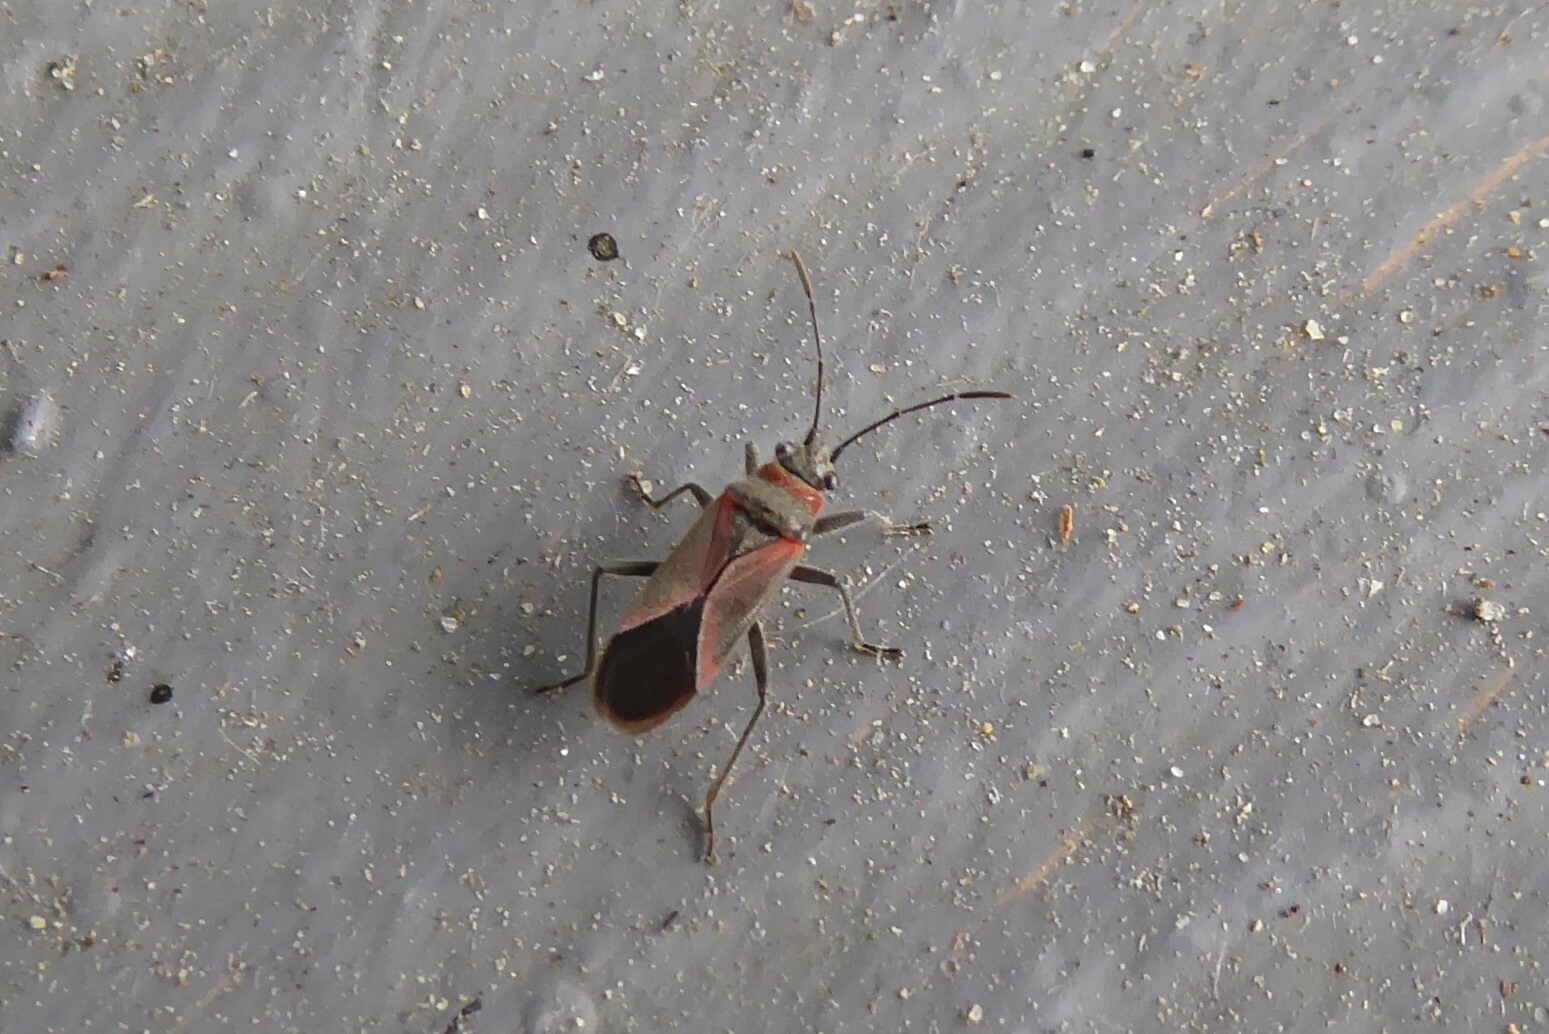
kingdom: Animalia
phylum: Arthropoda
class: Insecta
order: Hemiptera
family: Lygaeidae
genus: Arocatus
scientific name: Arocatus rusticus
